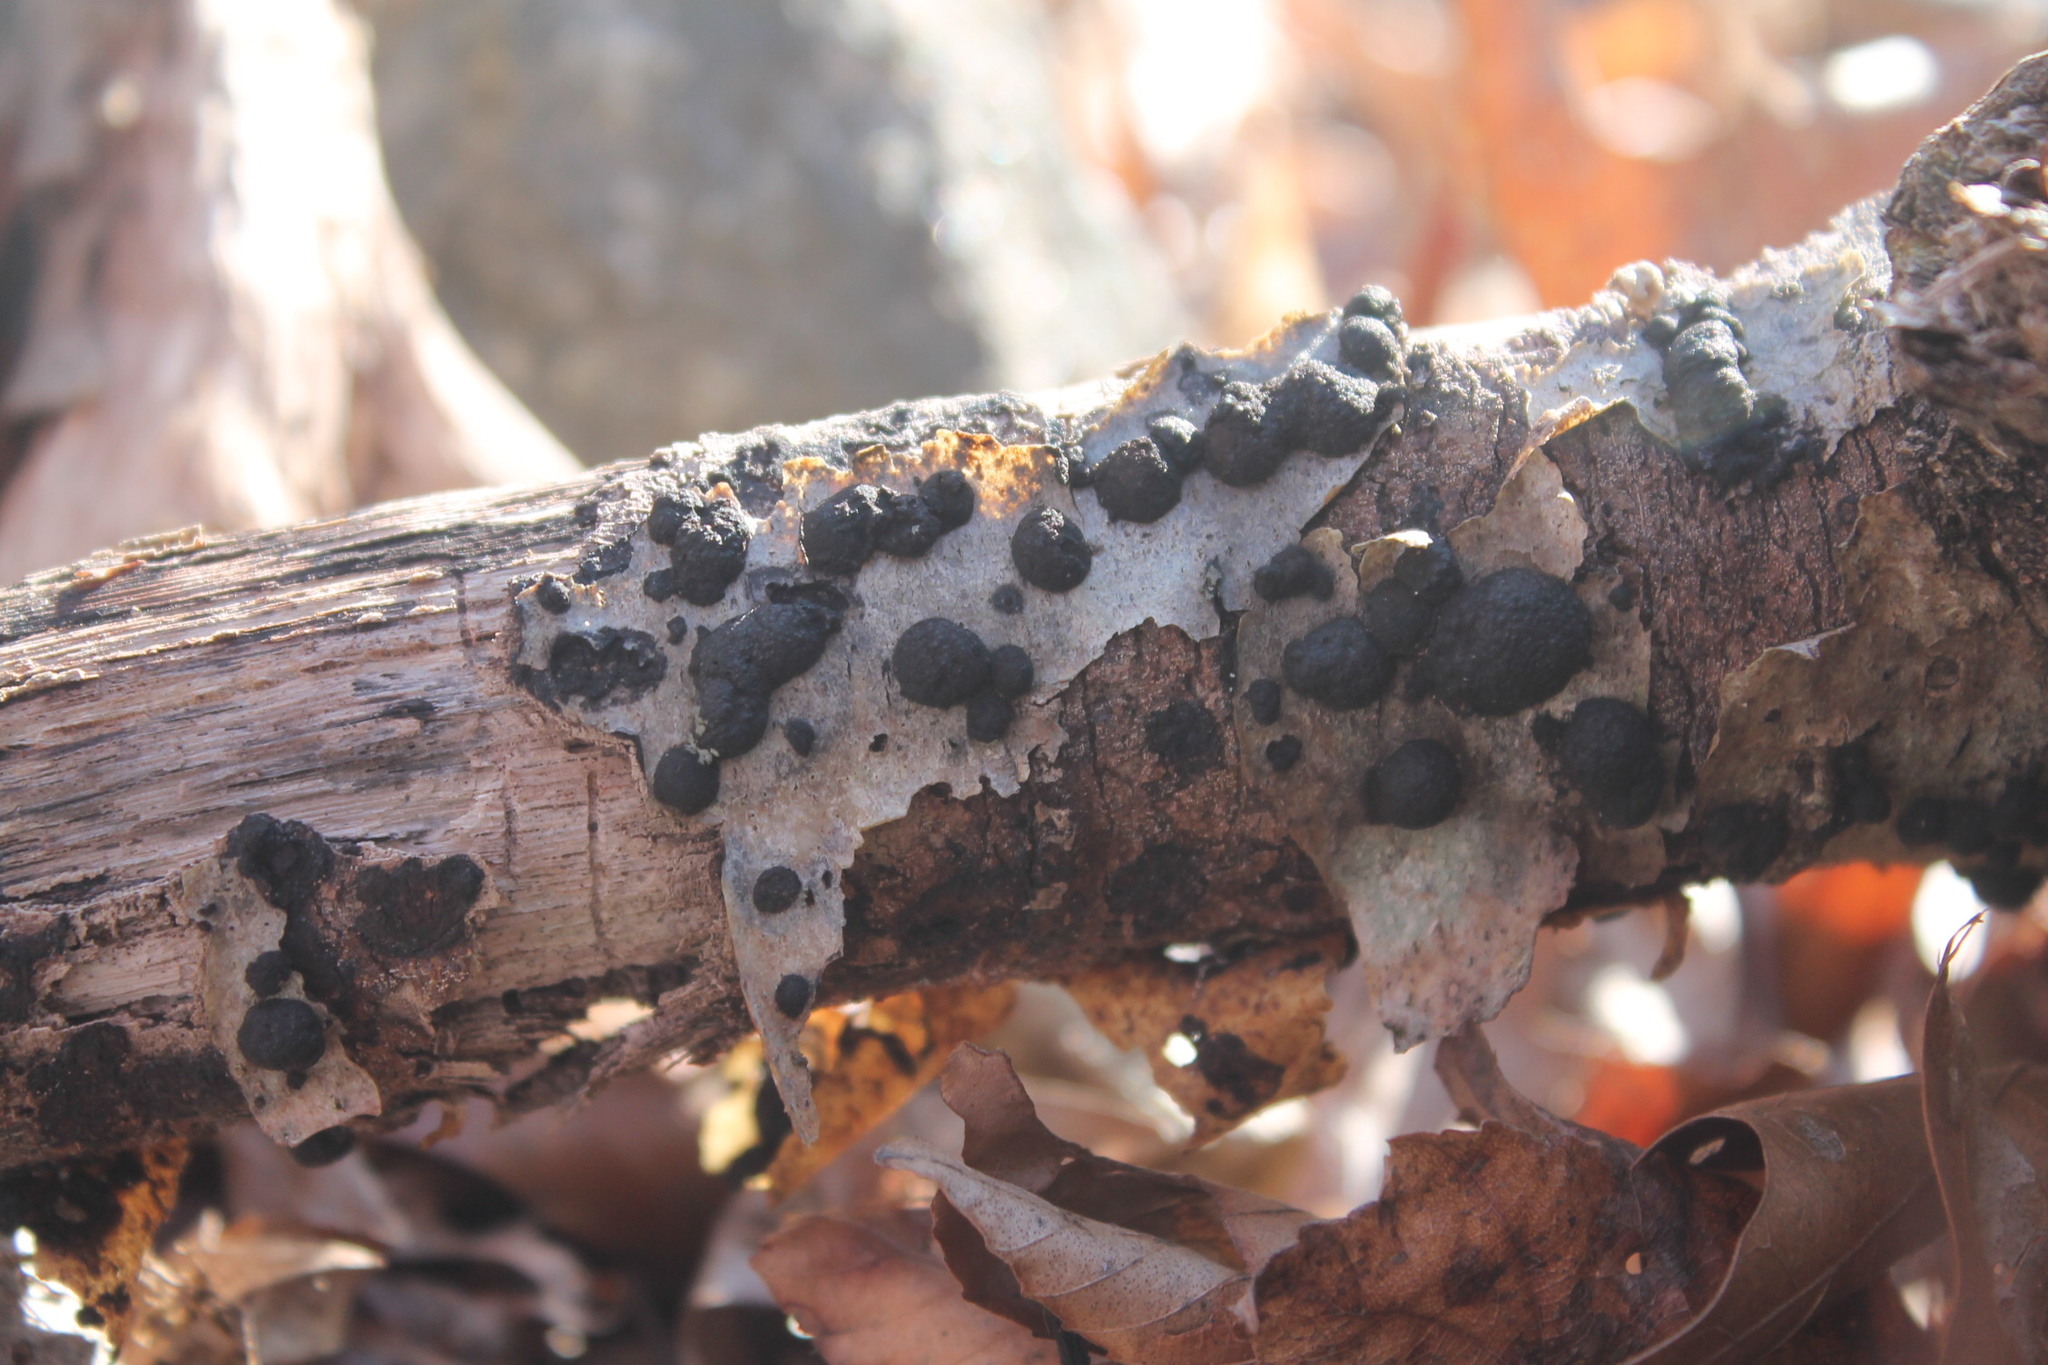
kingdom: Fungi
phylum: Ascomycota
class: Sordariomycetes
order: Xylariales
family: Hypoxylaceae
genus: Jackrogersella
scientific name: Jackrogersella multiformis
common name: Birch woodwart
